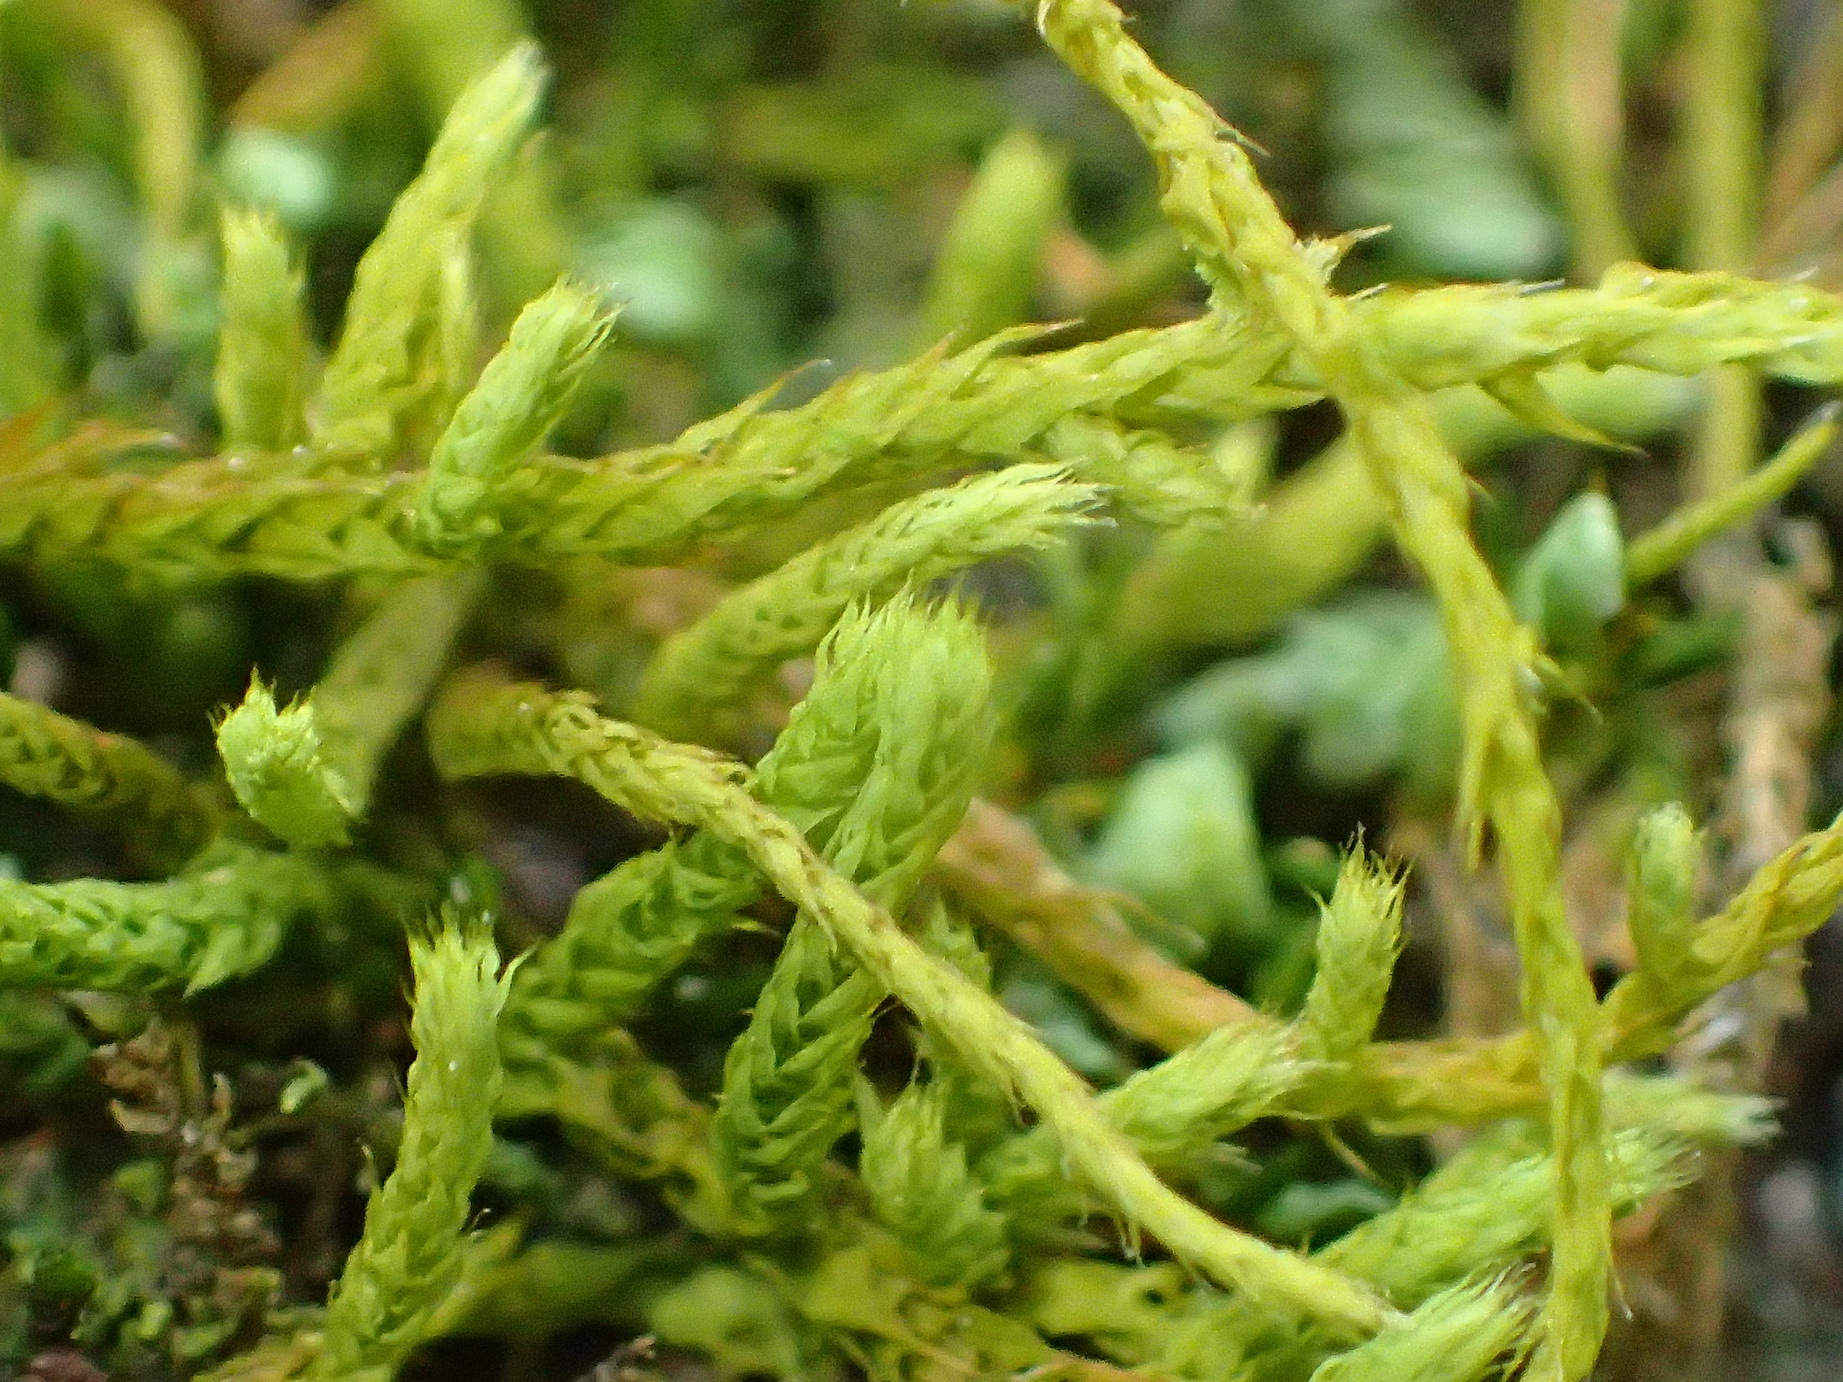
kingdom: Plantae
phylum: Bryophyta
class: Bryopsida
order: Hypnales
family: Meteoriaceae
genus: Papillaria
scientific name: Papillaria africana
